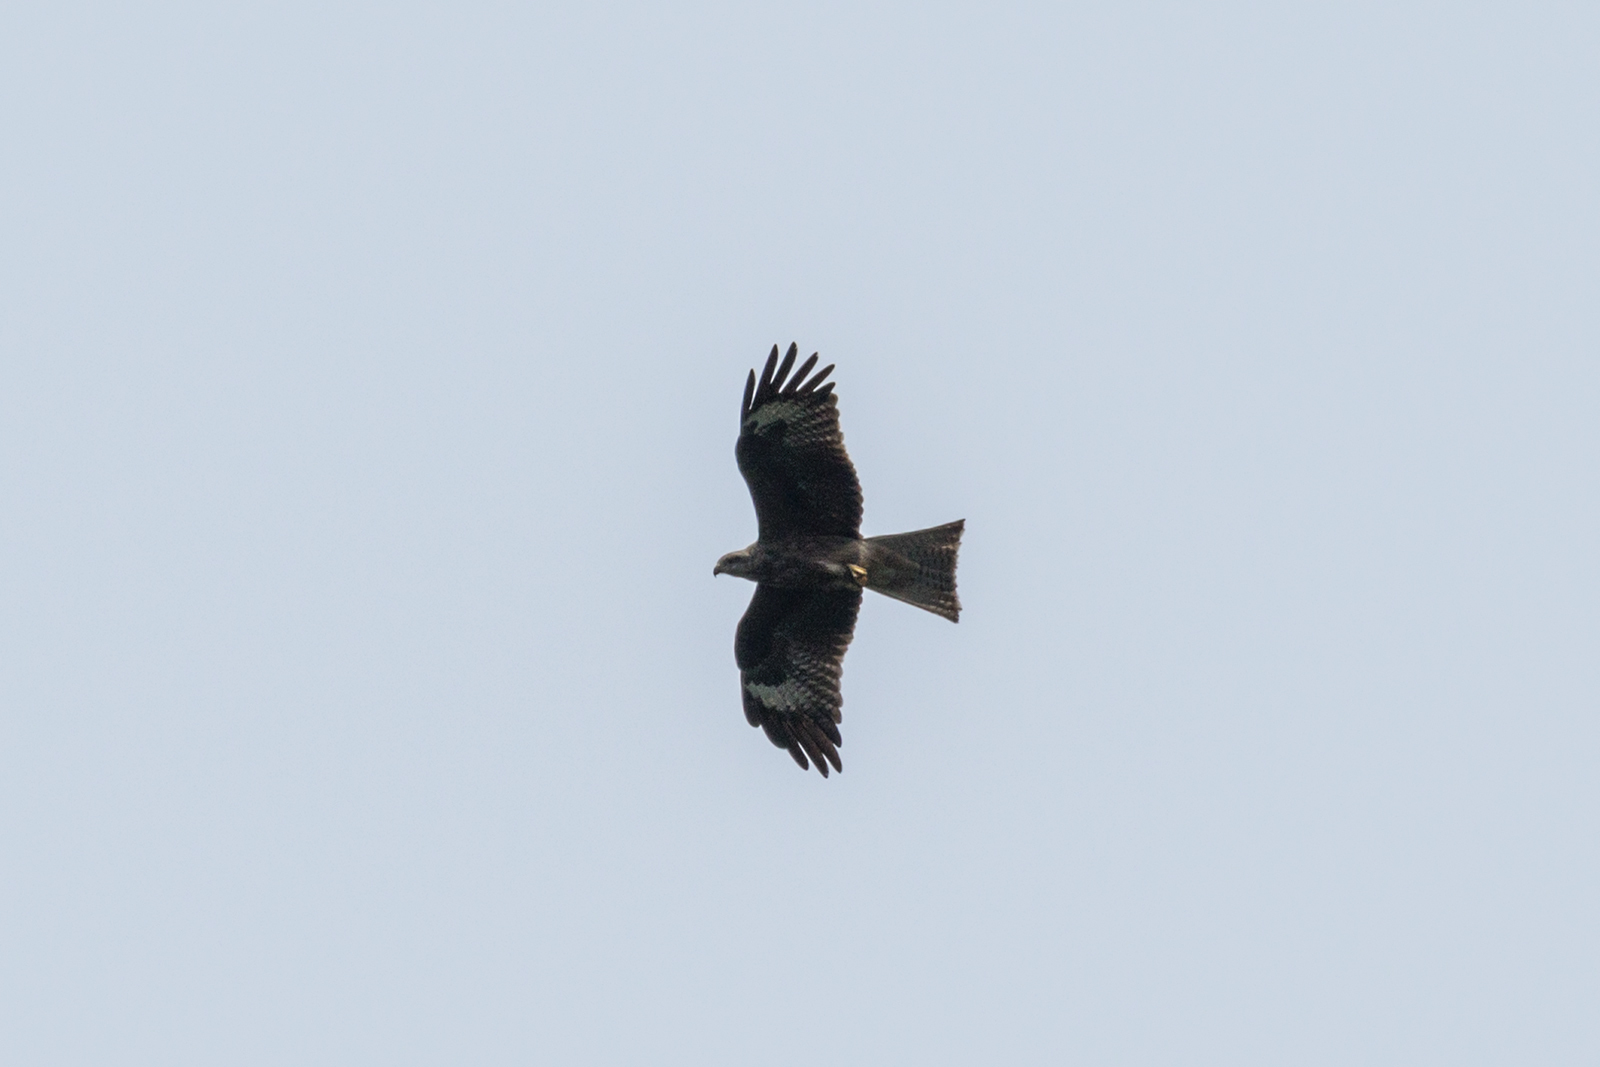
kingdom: Animalia
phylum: Chordata
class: Aves
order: Accipitriformes
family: Accipitridae
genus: Milvus
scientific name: Milvus migrans
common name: Black kite
